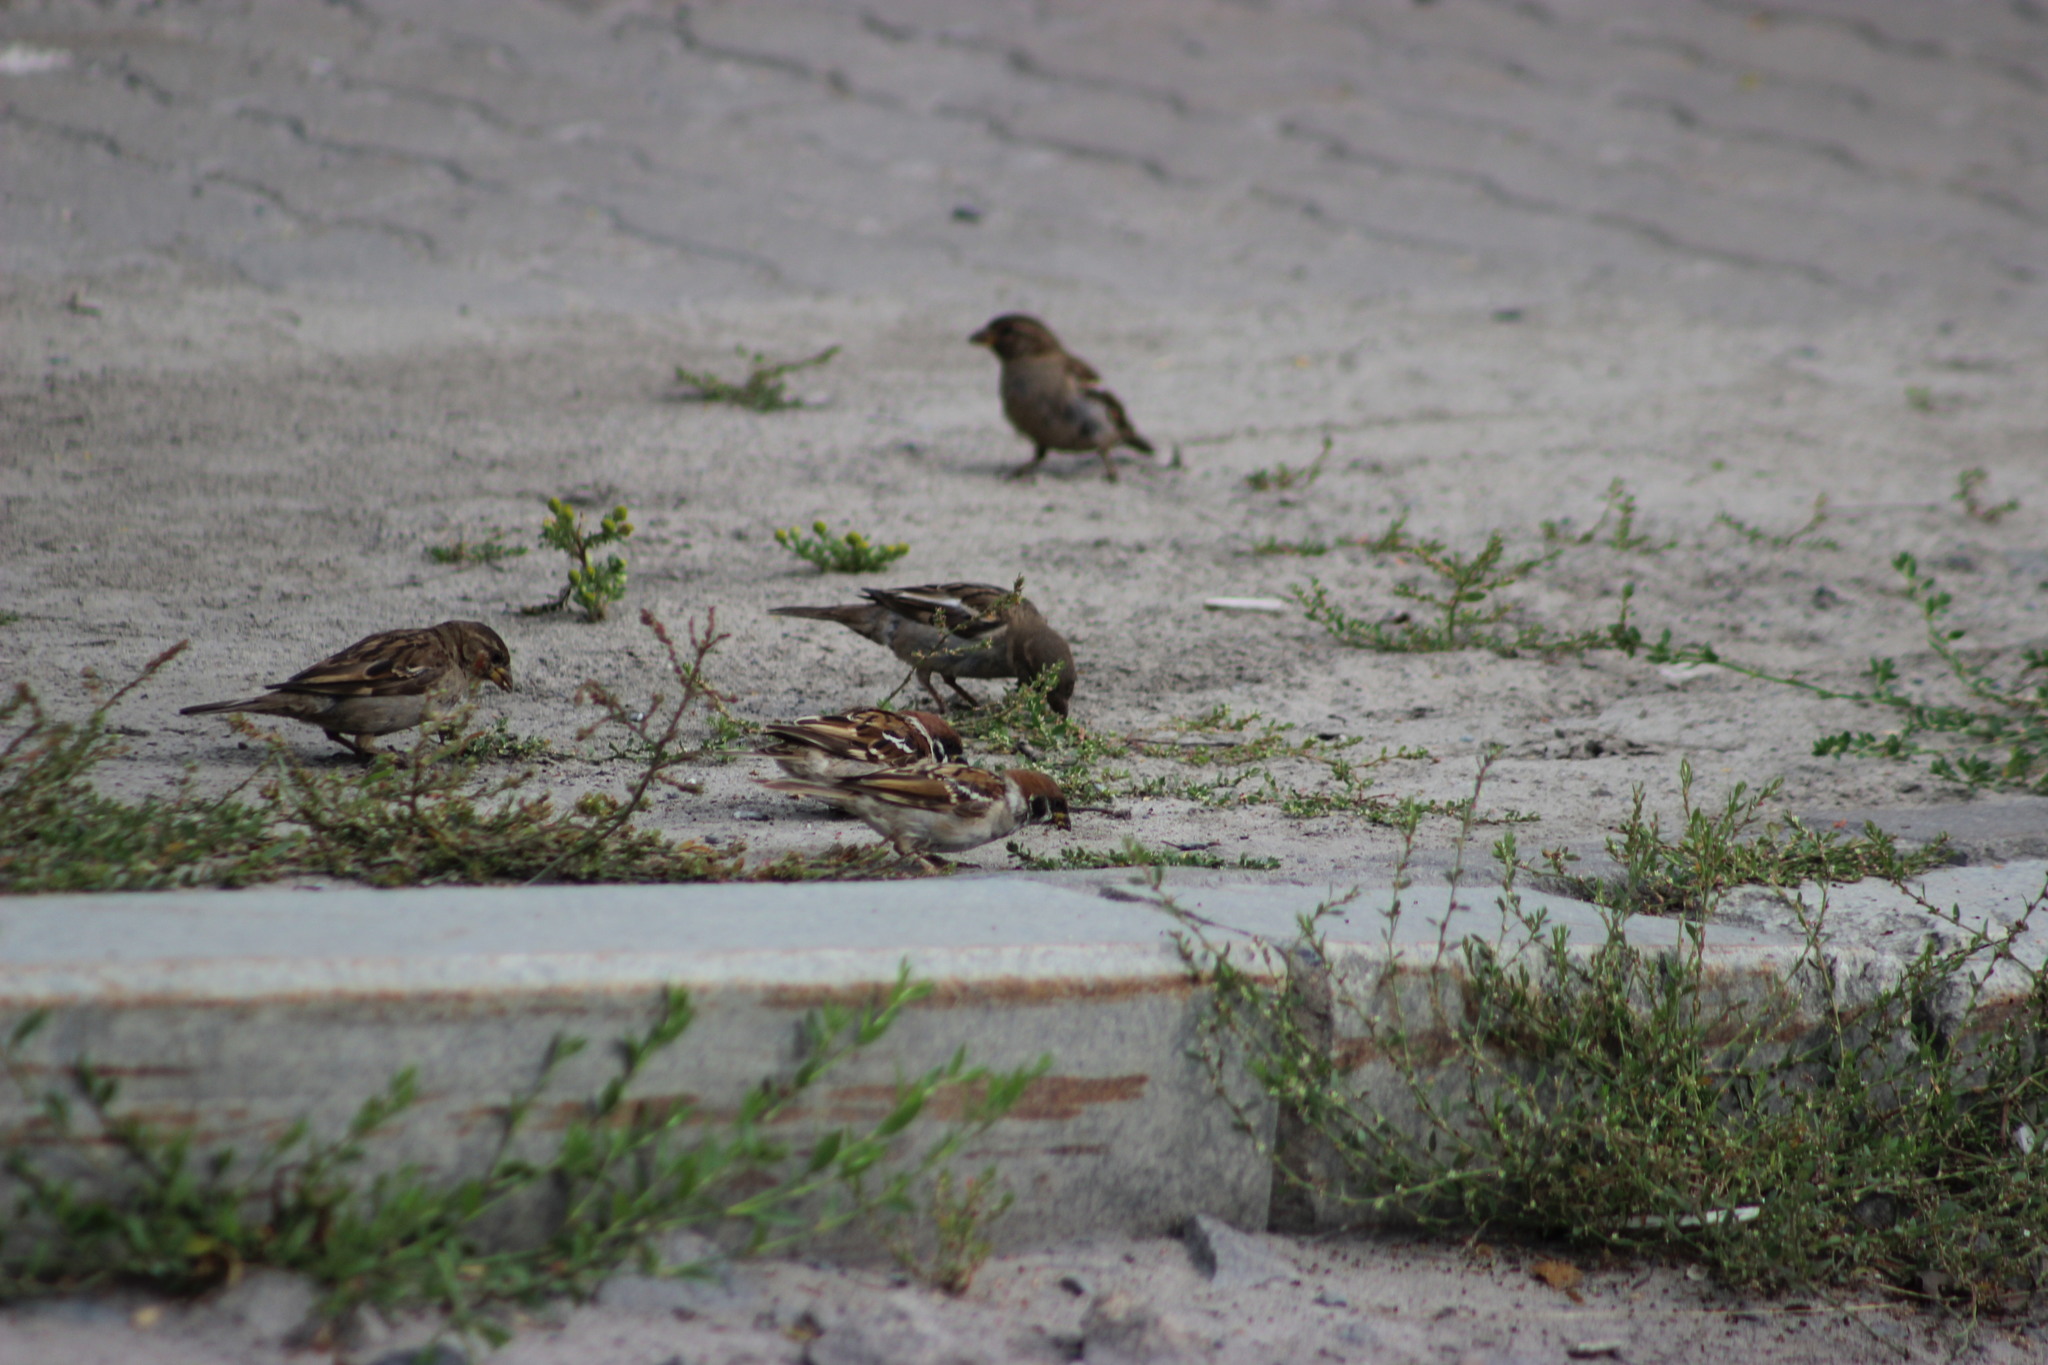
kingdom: Animalia
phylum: Chordata
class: Aves
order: Passeriformes
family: Passeridae
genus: Passer
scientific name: Passer montanus
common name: Eurasian tree sparrow
